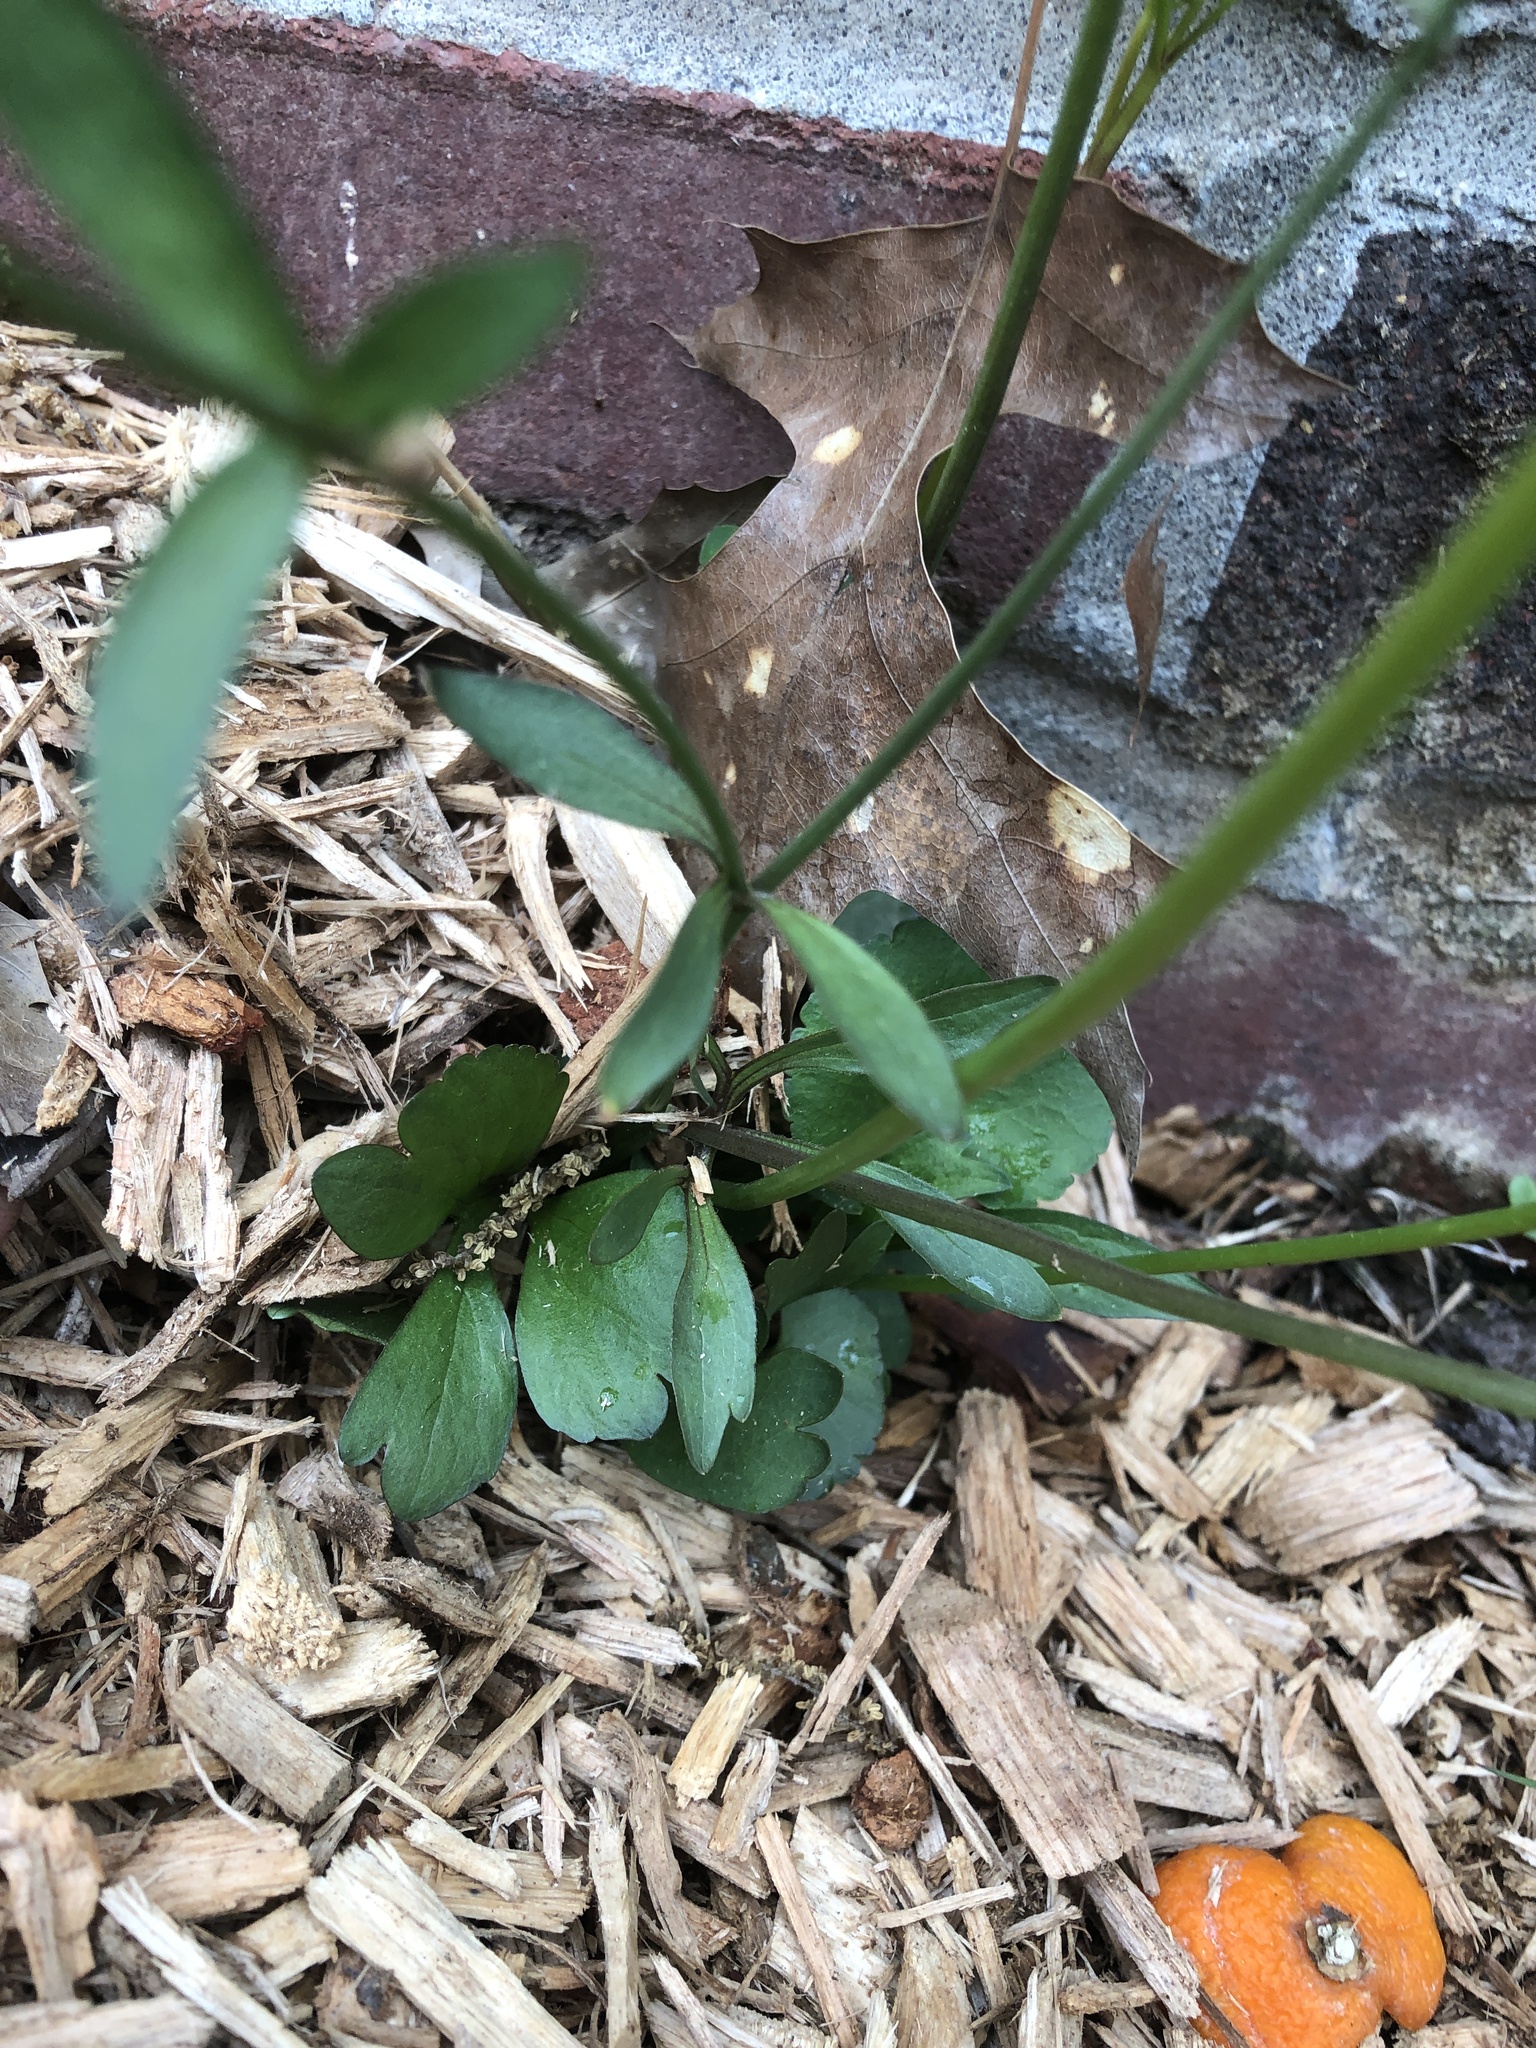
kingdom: Plantae
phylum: Tracheophyta
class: Magnoliopsida
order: Ranunculales
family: Ranunculaceae
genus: Ranunculus
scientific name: Ranunculus abortivus
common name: Early wood buttercup
